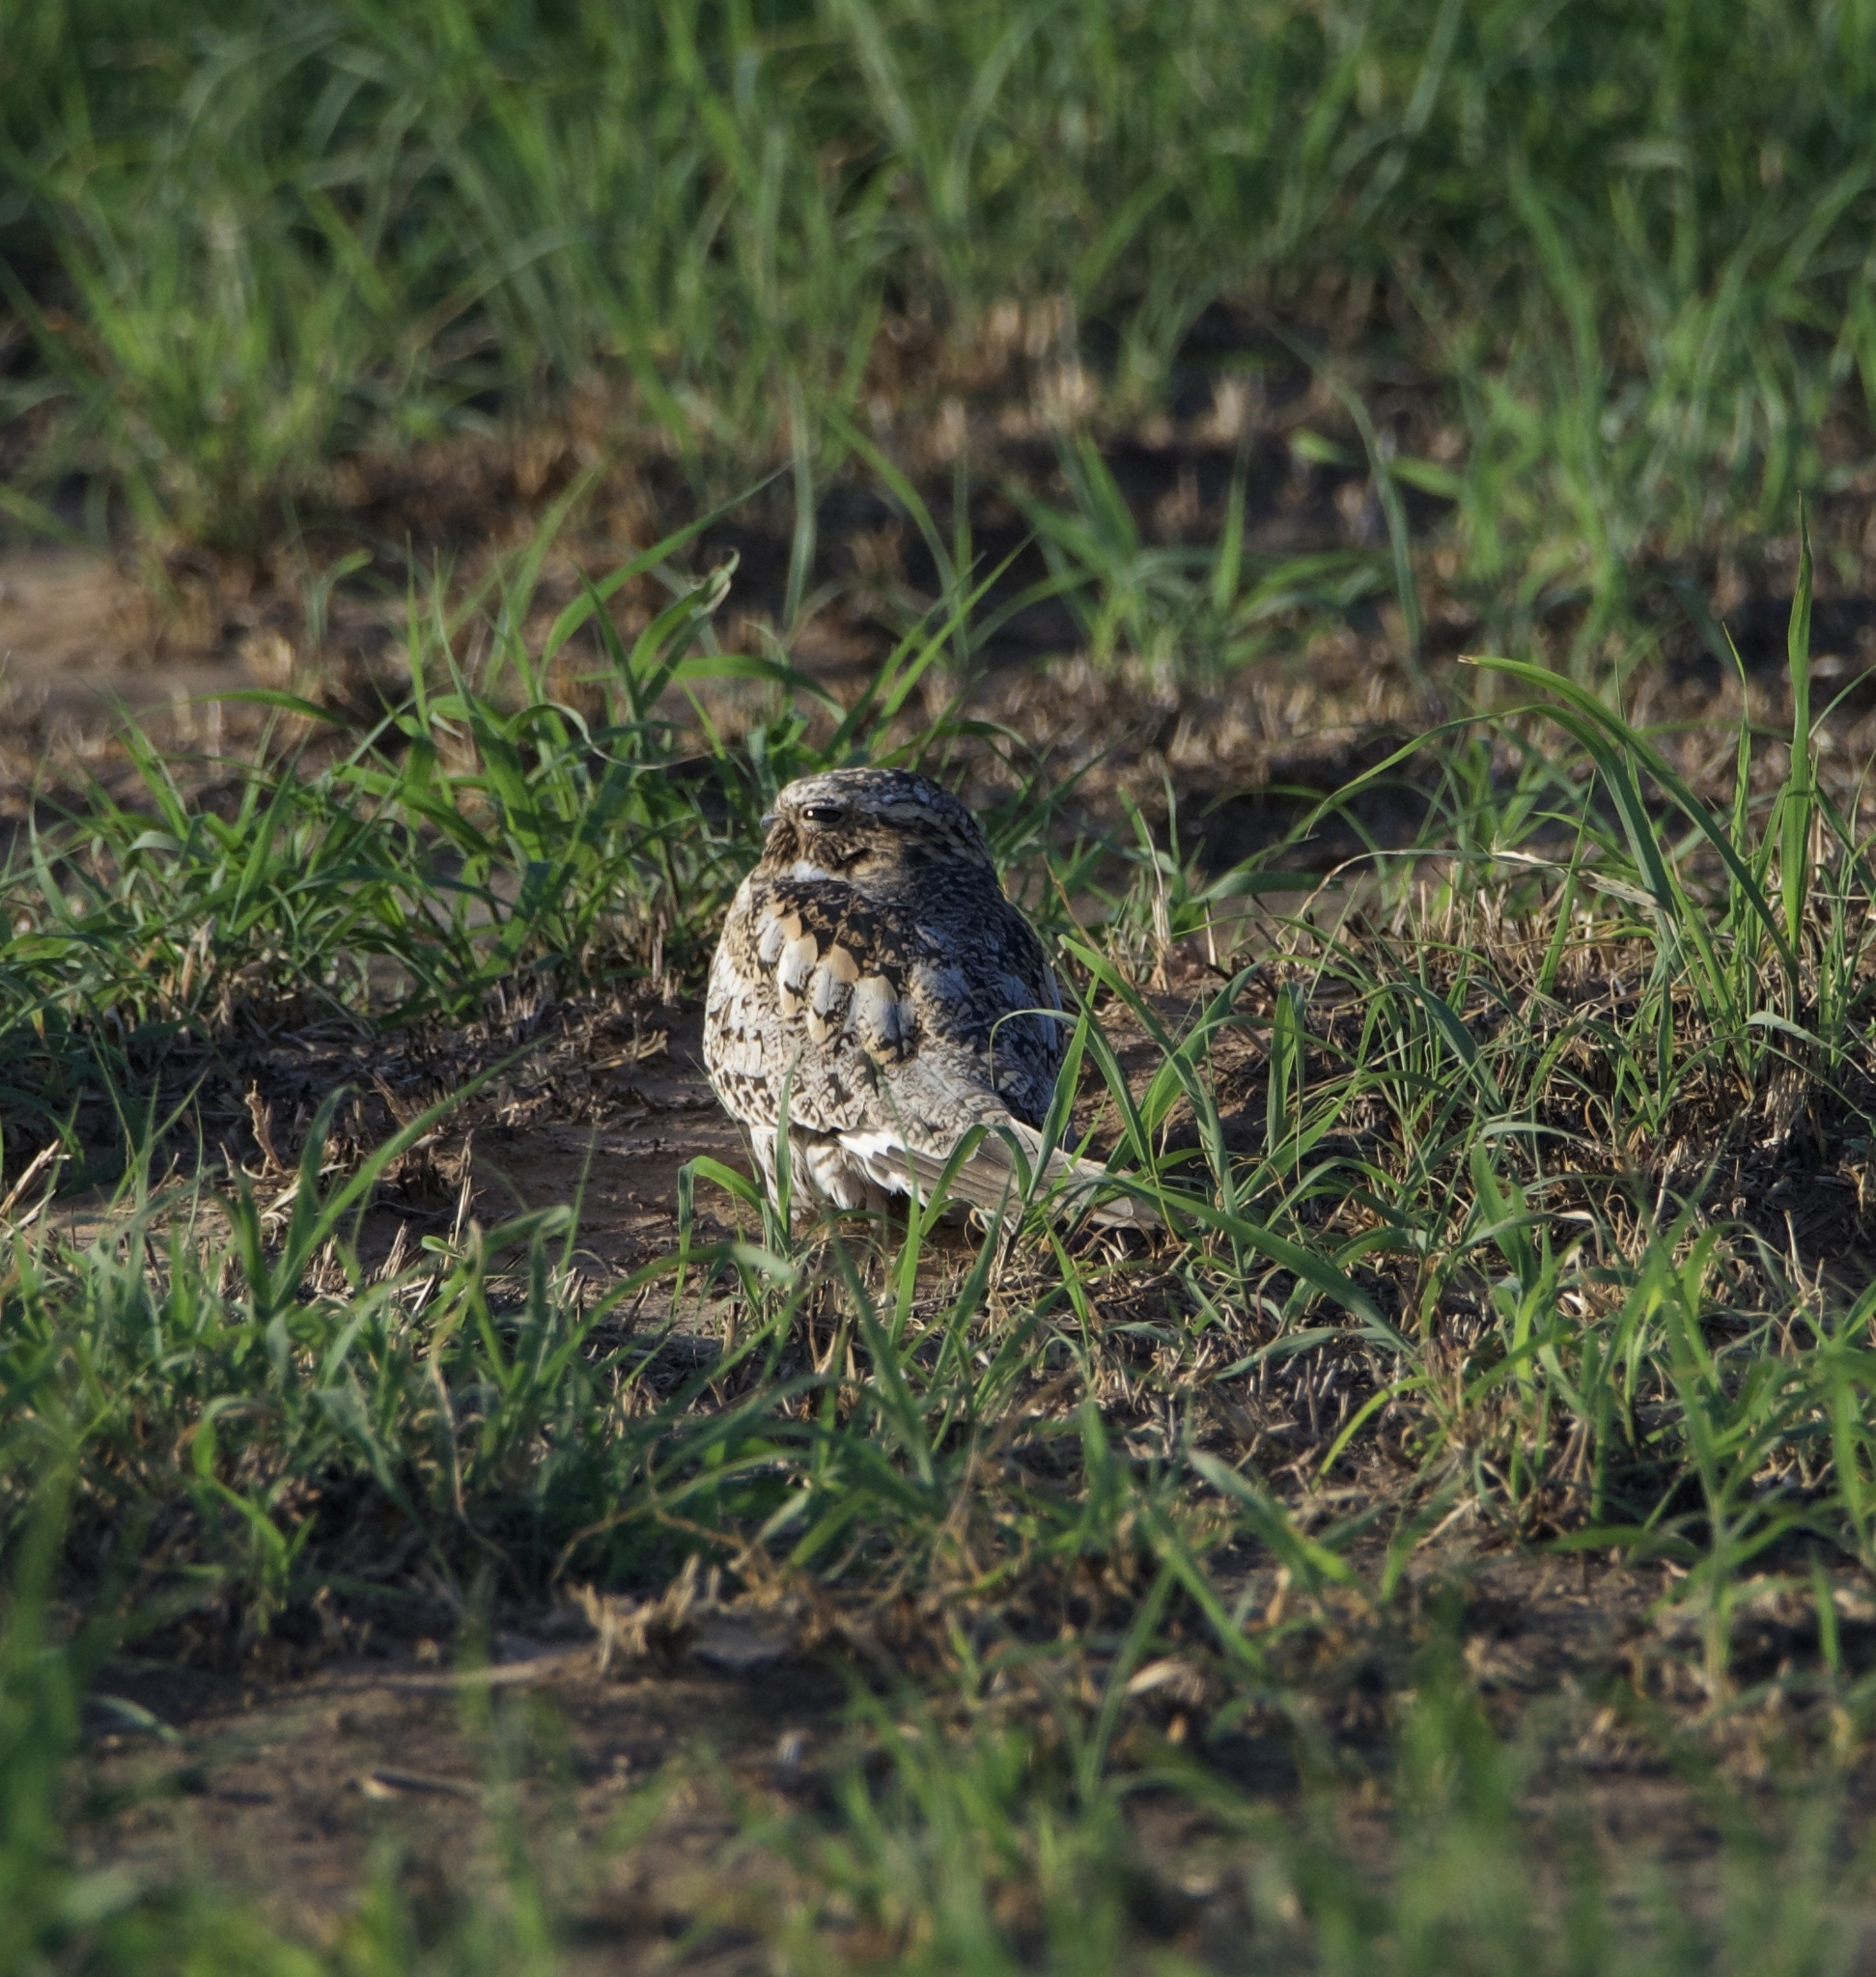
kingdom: Animalia
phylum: Chordata
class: Aves
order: Caprimulgiformes
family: Caprimulgidae
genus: Chordeiles
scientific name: Chordeiles minor
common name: Common nighthawk
